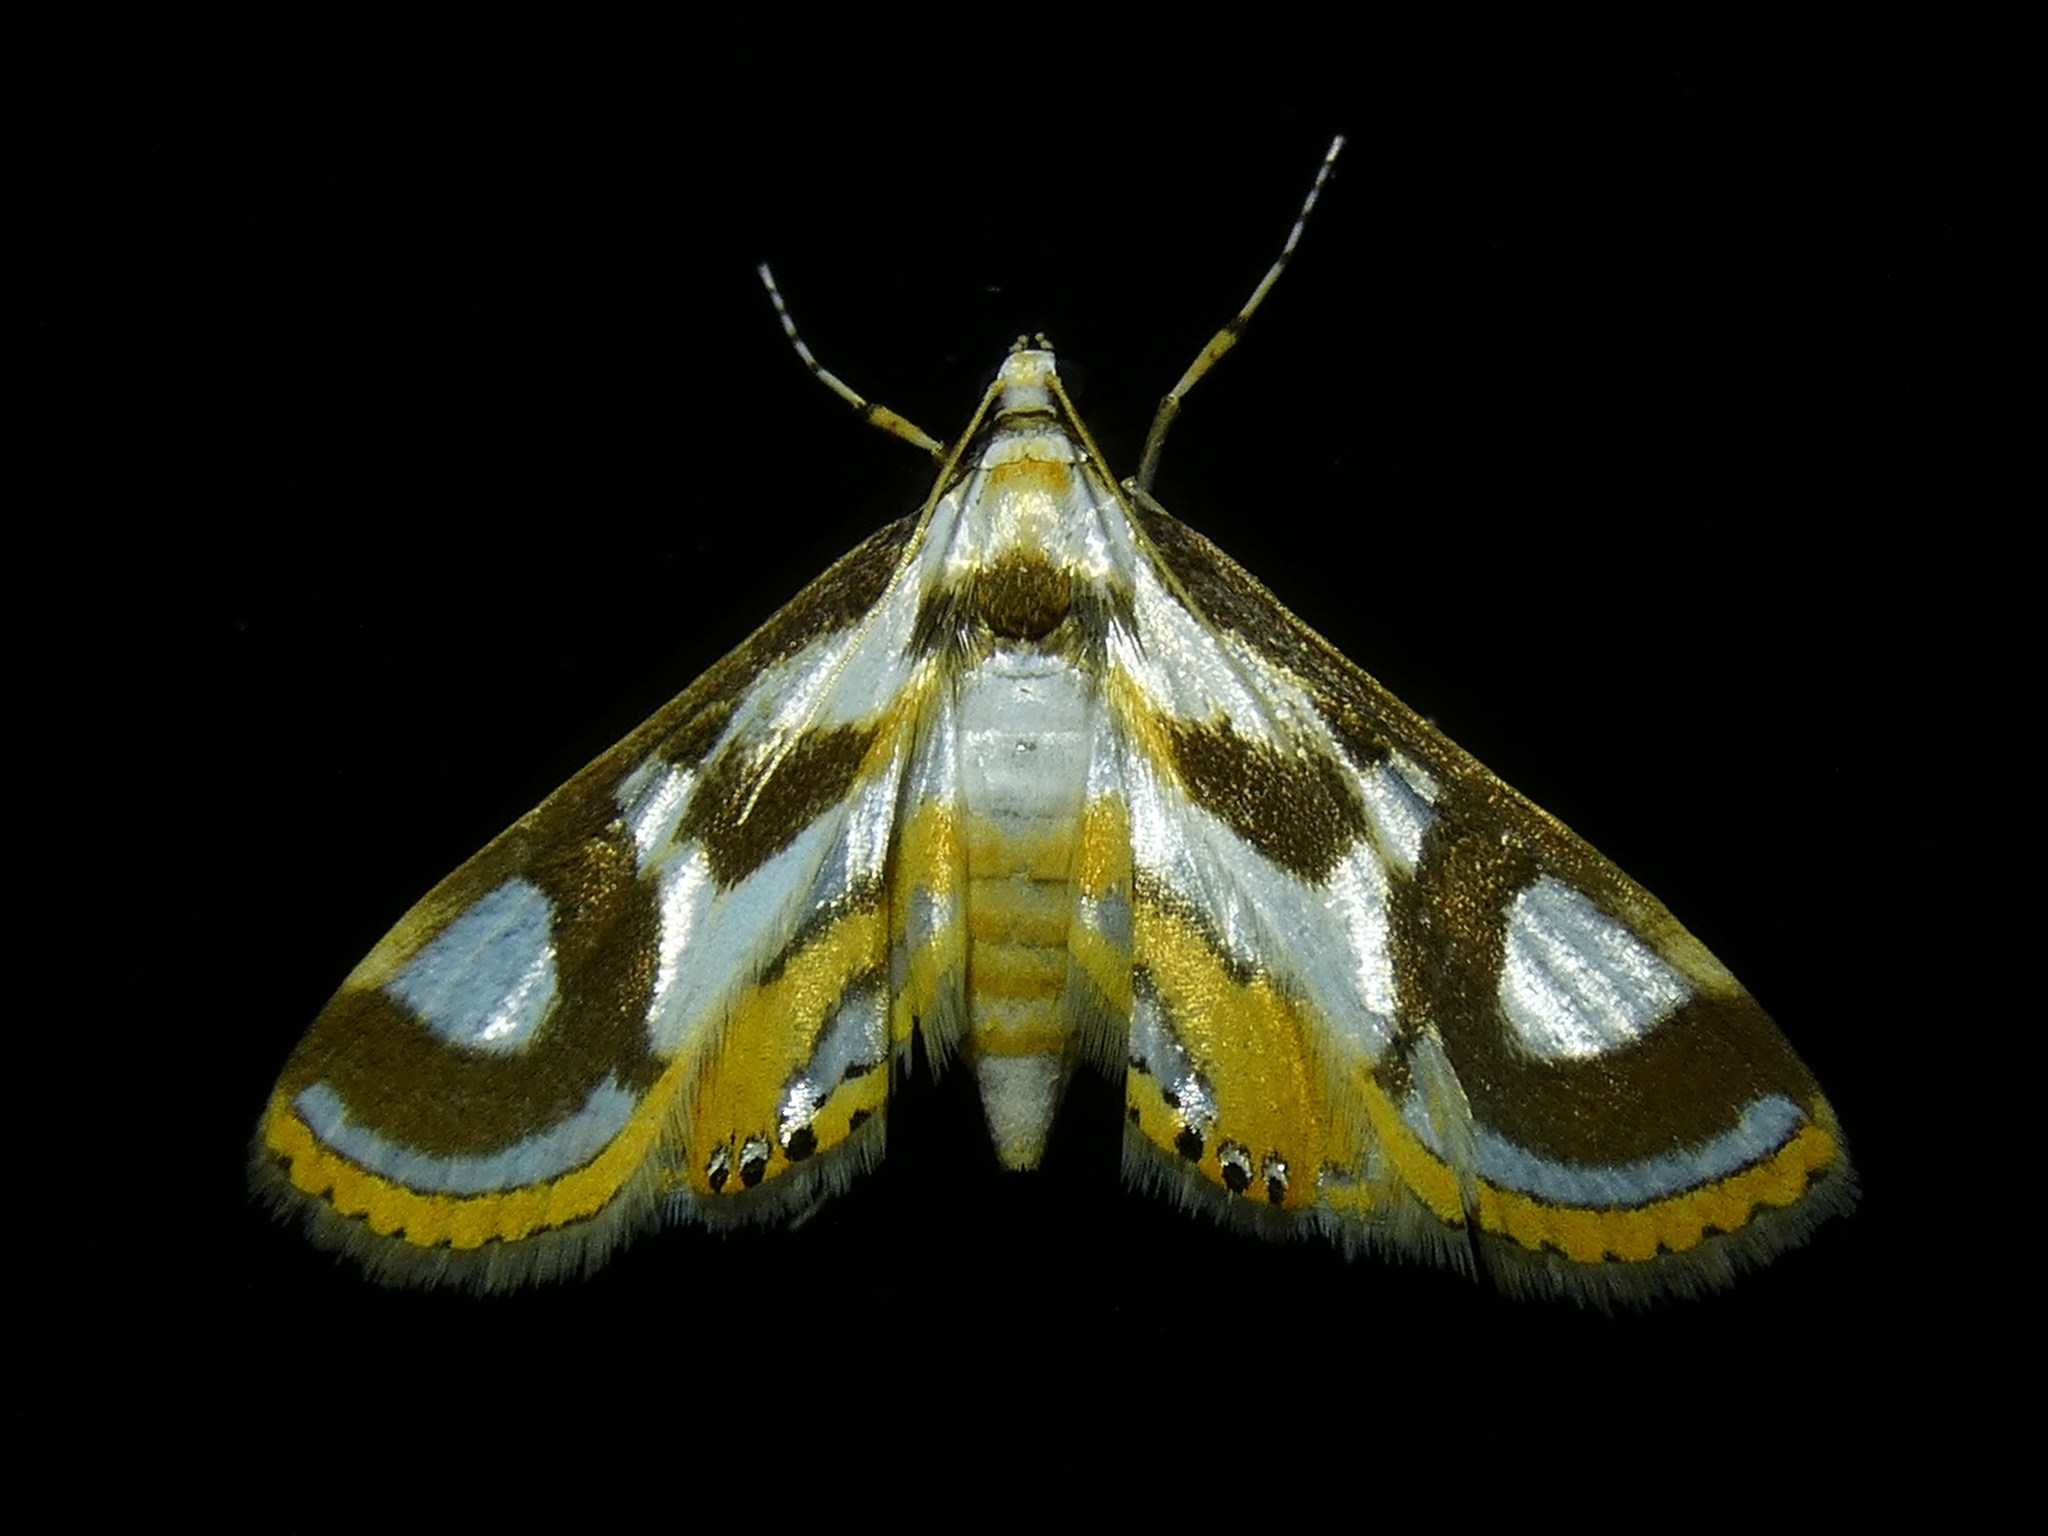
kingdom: Animalia
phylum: Arthropoda
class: Insecta
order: Lepidoptera
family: Crambidae
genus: Theila
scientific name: Theila siennata
